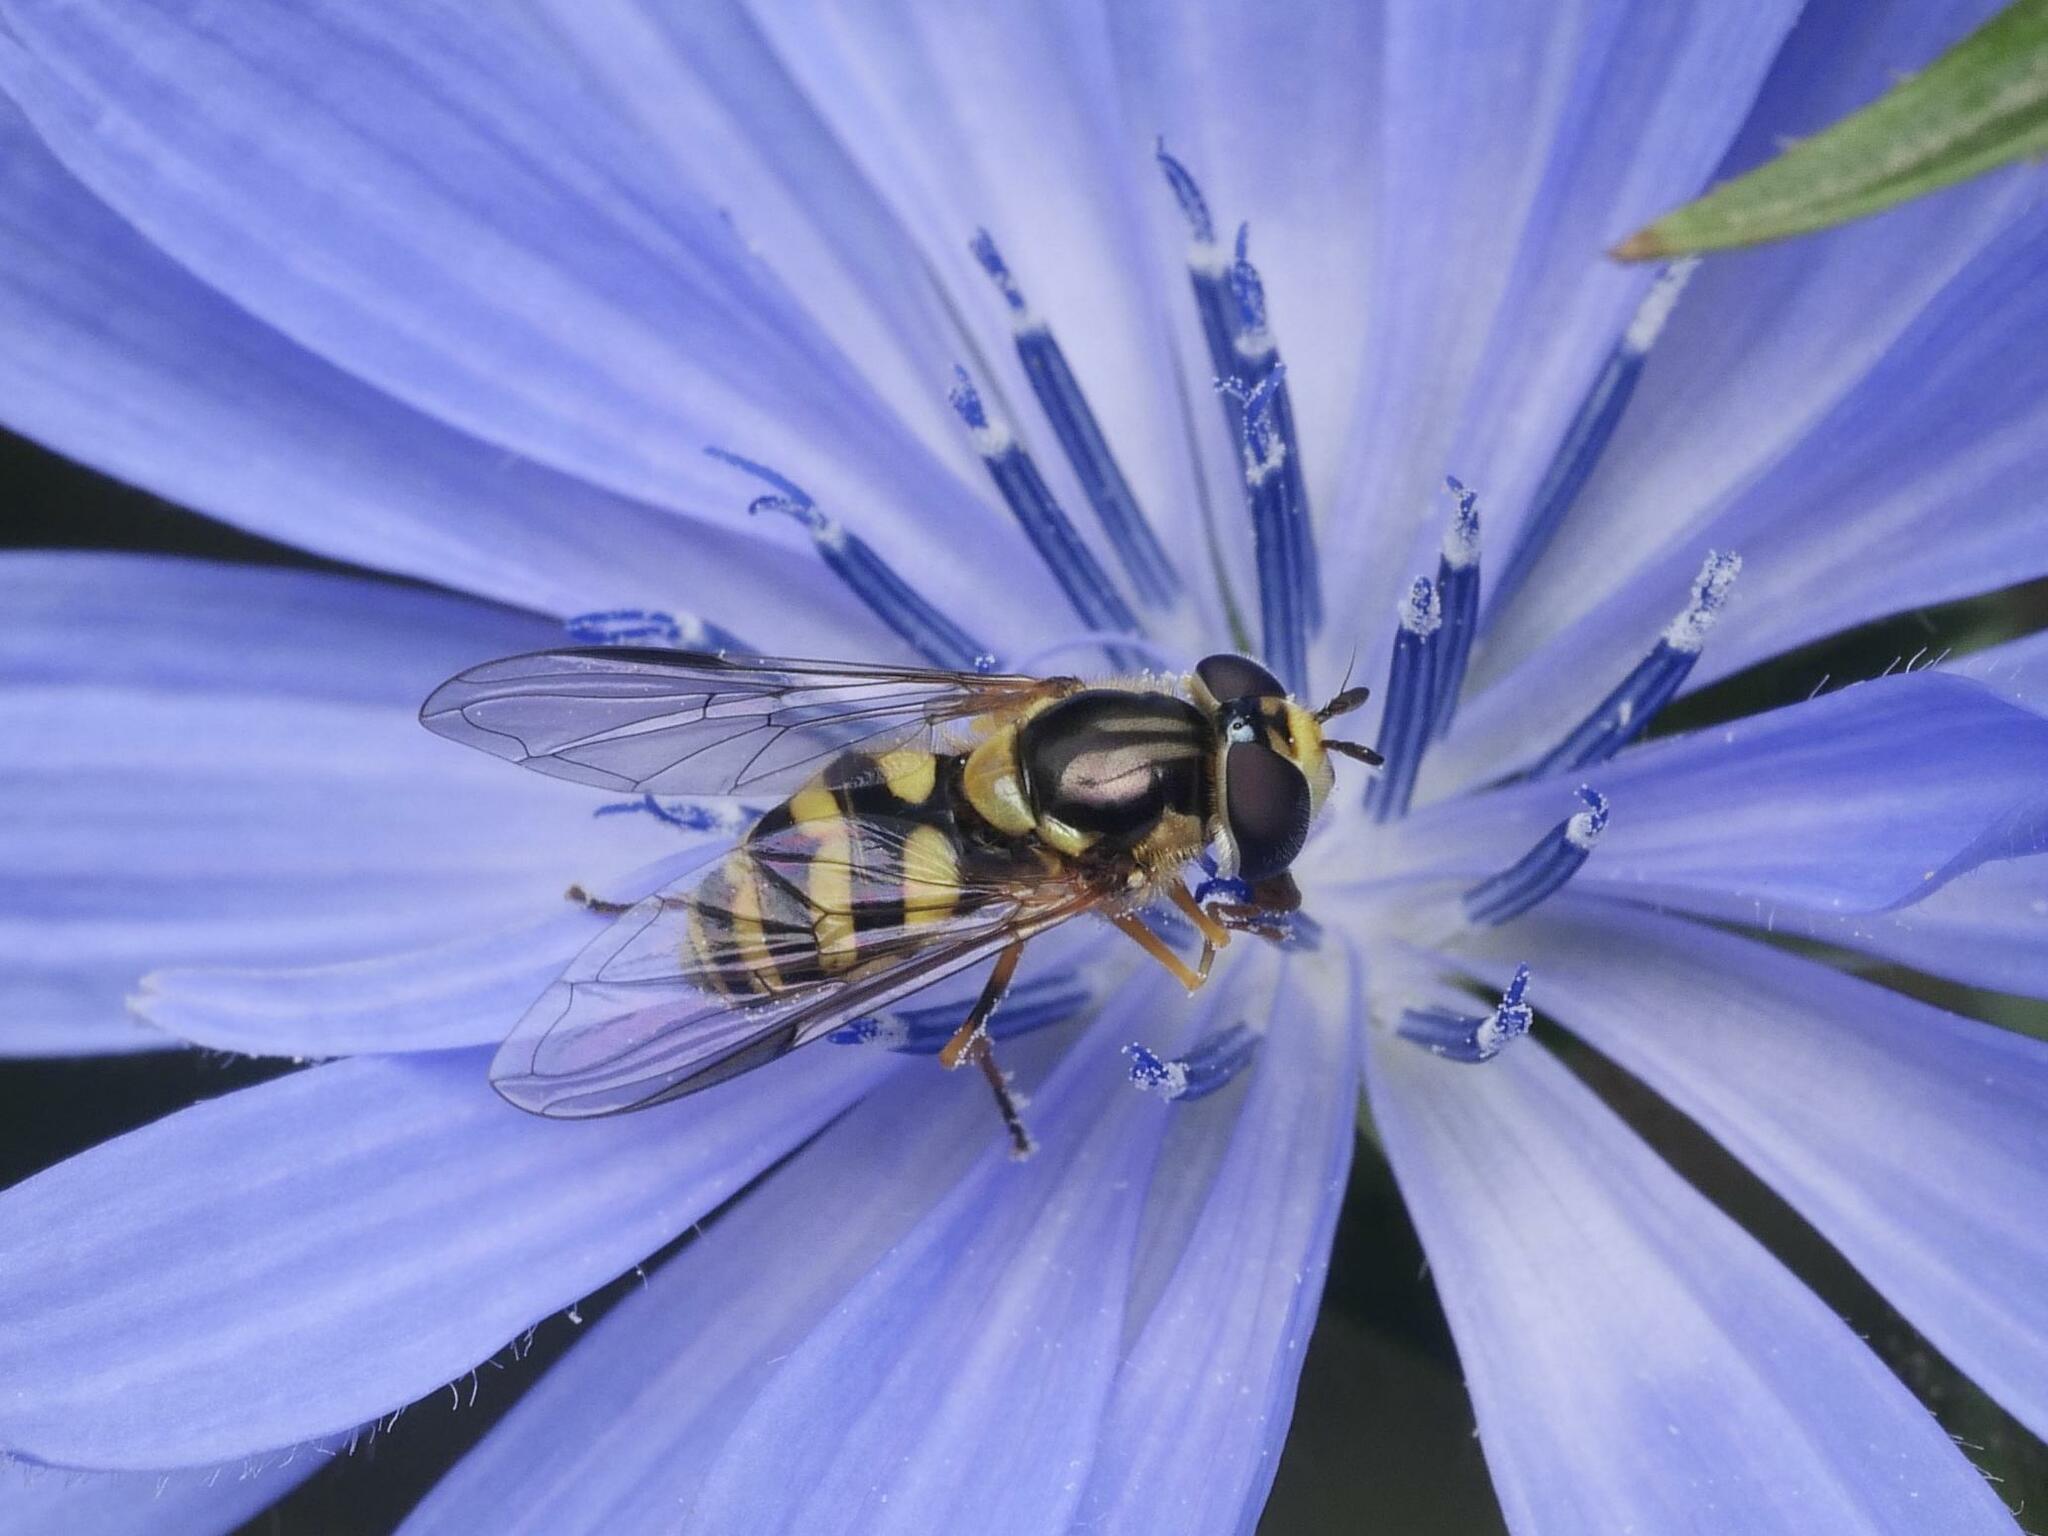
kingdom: Animalia
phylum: Arthropoda
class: Insecta
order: Diptera
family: Syrphidae
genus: Dasysyrphus
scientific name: Dasysyrphus albostriatus
